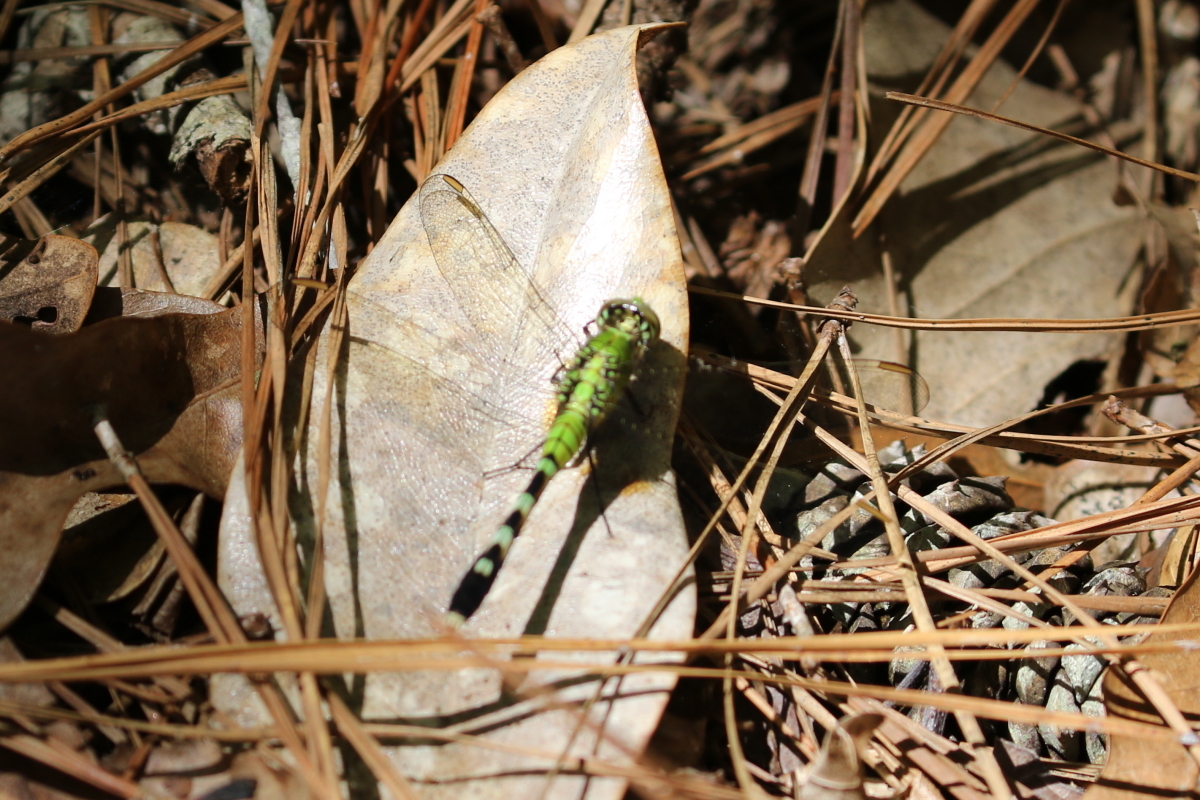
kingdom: Animalia
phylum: Arthropoda
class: Insecta
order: Odonata
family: Libellulidae
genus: Erythemis
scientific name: Erythemis simplicicollis
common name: Eastern pondhawk
